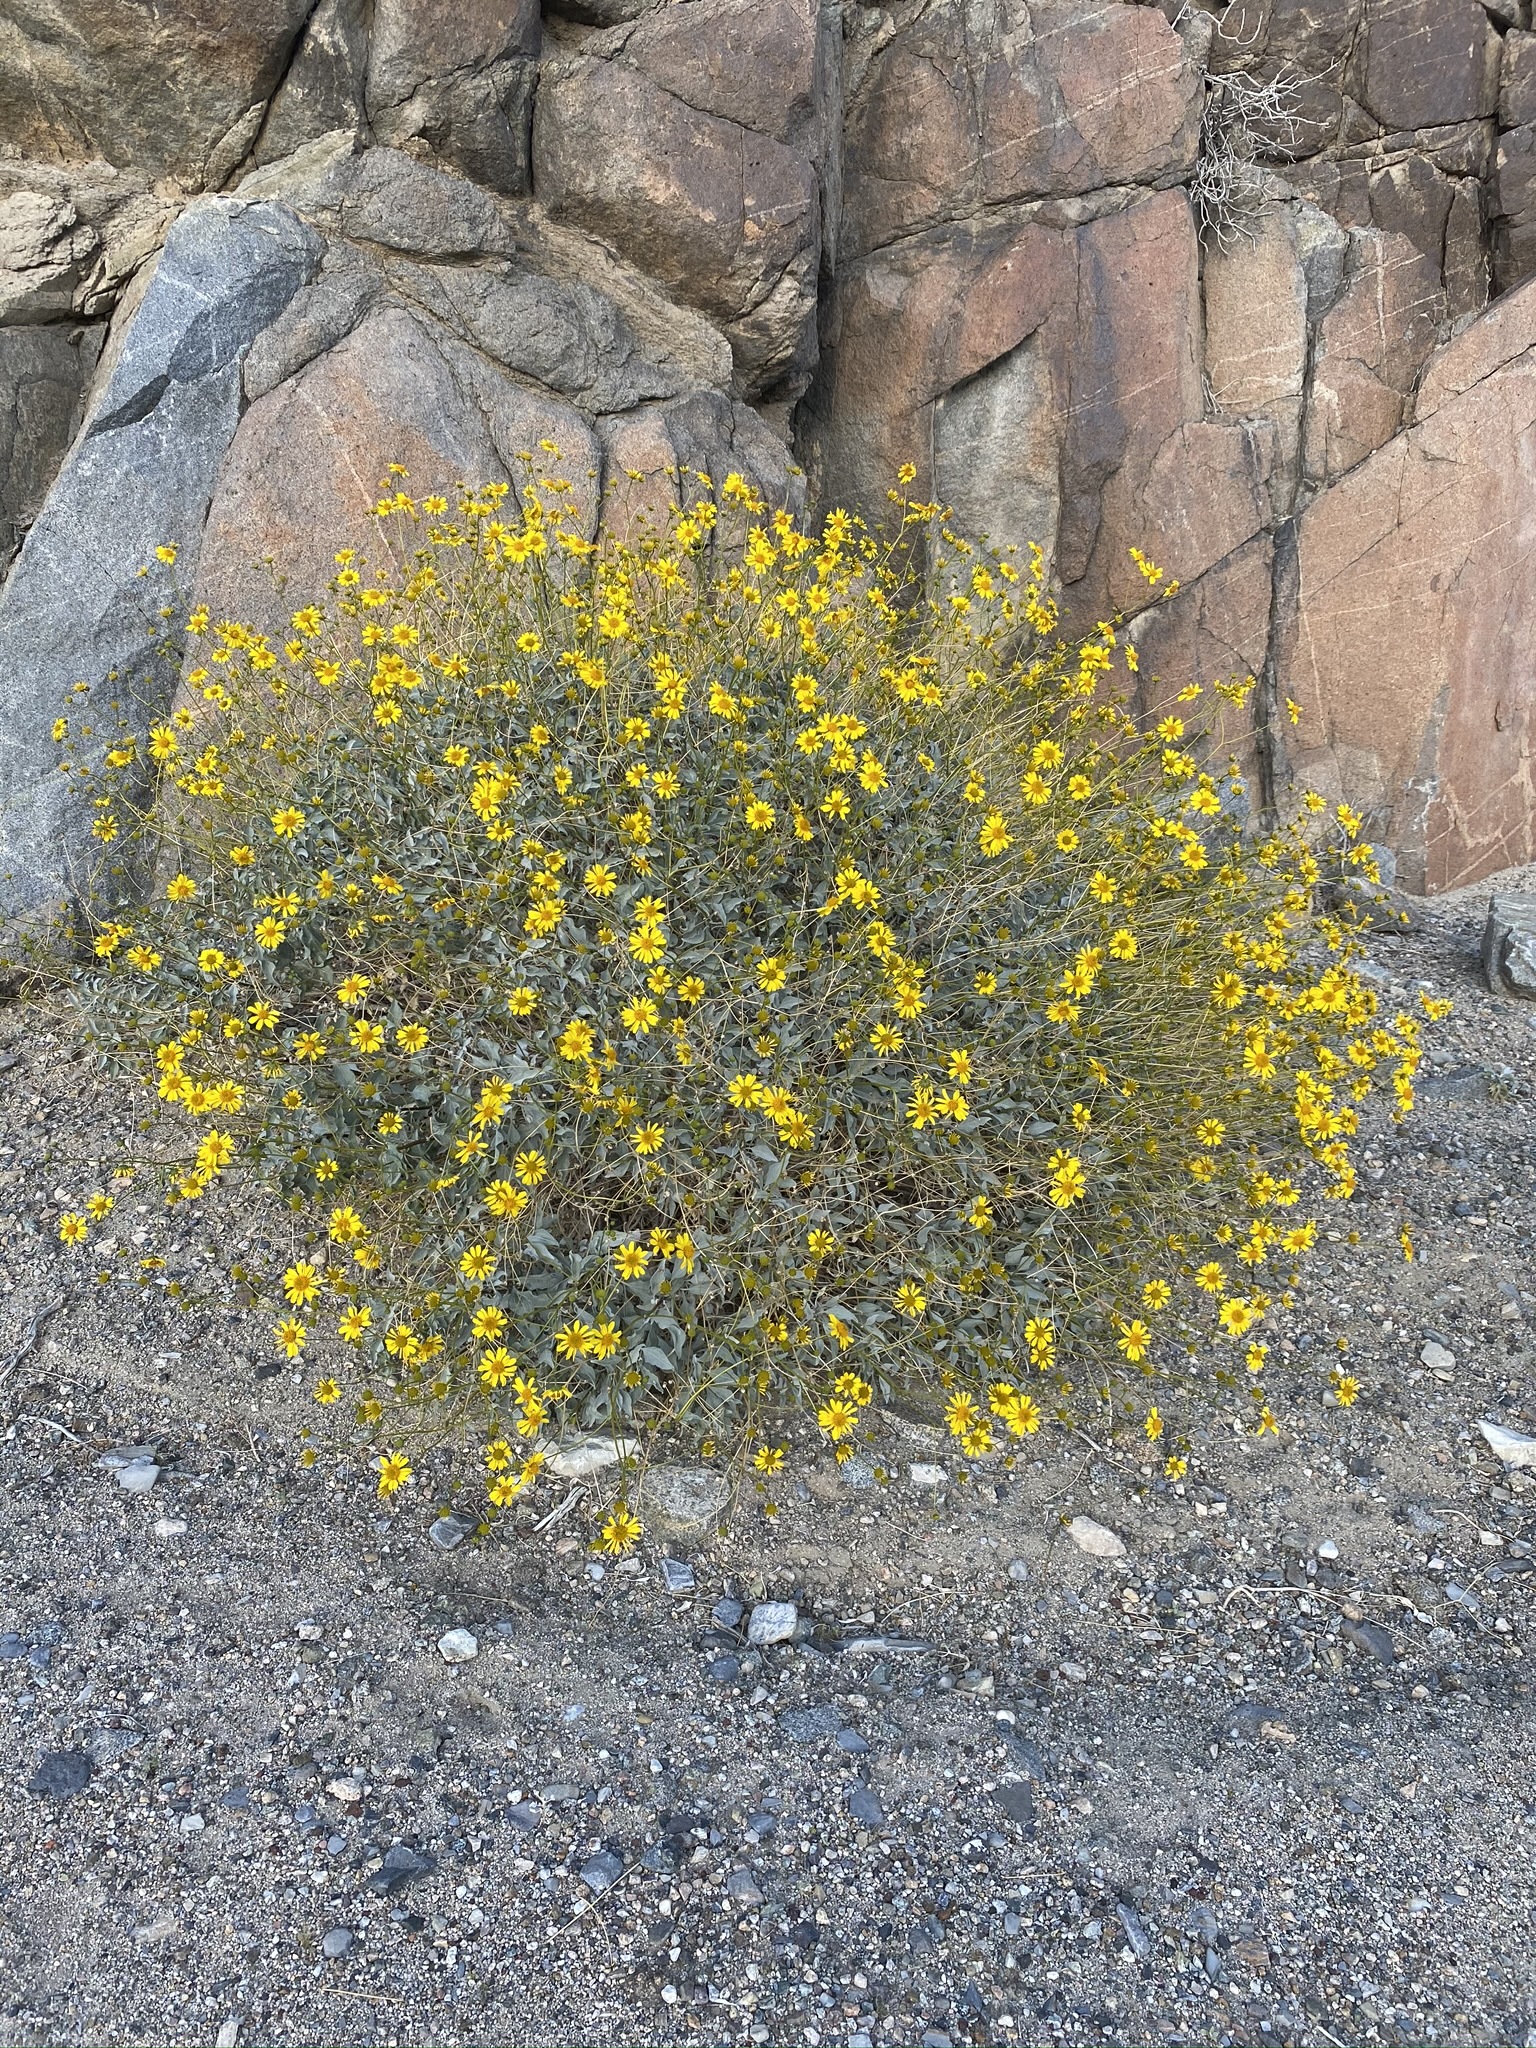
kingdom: Plantae
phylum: Tracheophyta
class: Magnoliopsida
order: Asterales
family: Asteraceae
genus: Encelia
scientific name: Encelia farinosa
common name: Brittlebush
